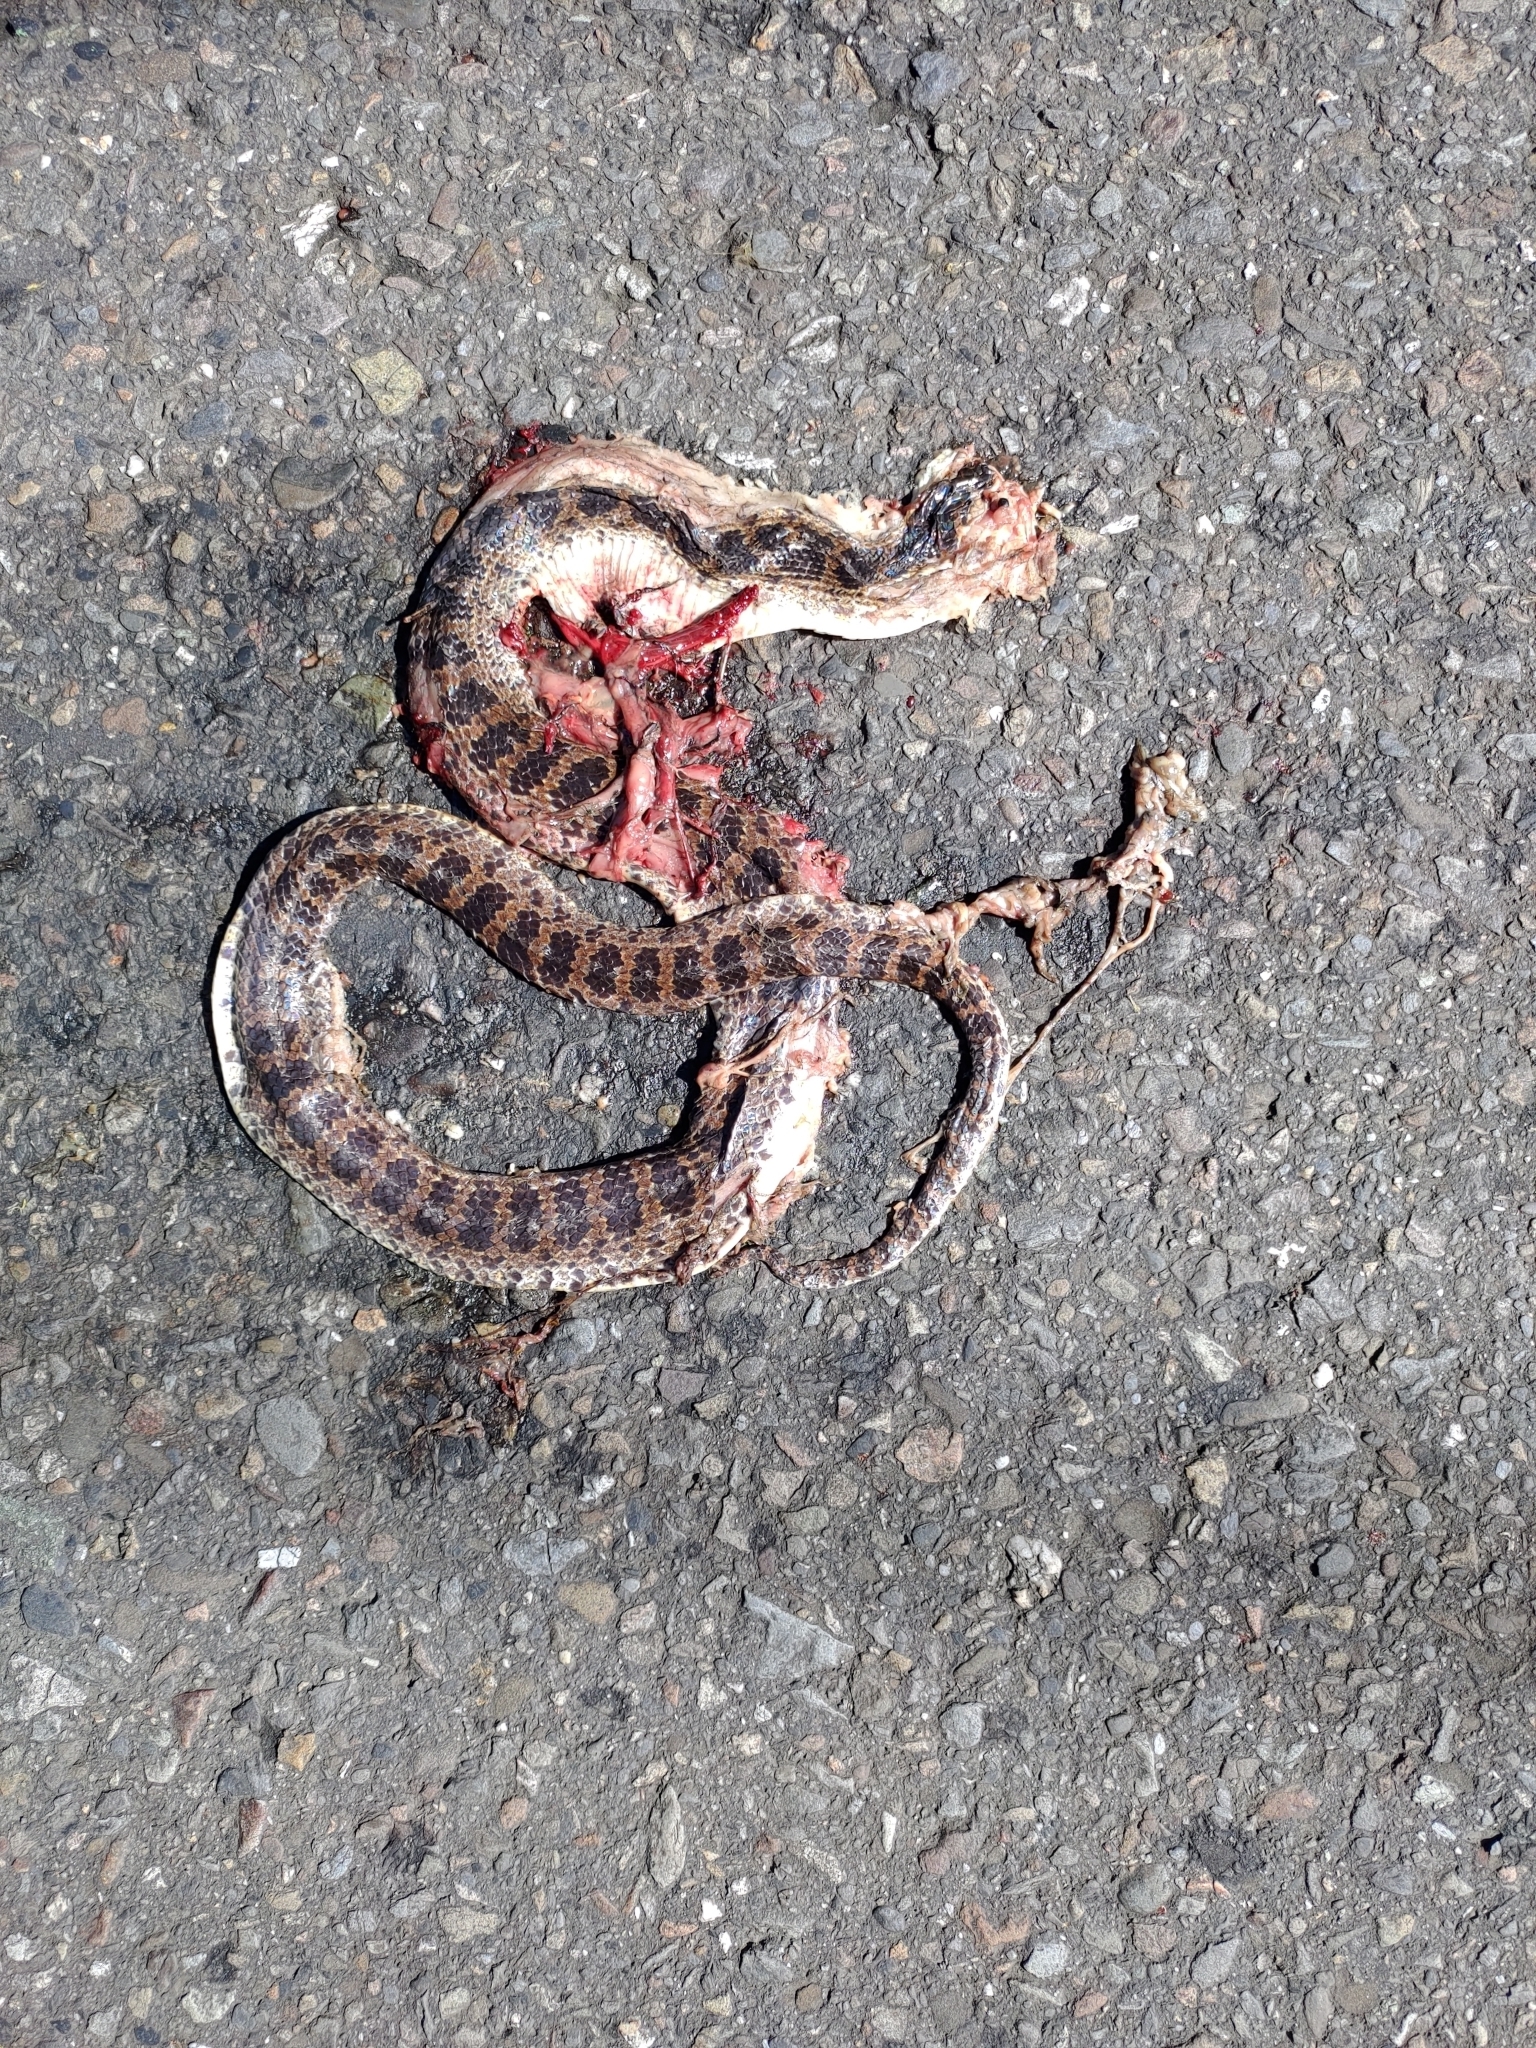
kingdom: Animalia
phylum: Chordata
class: Squamata
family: Colubridae
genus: Lycodon
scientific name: Lycodon rufozonatus
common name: Red-banded snake
